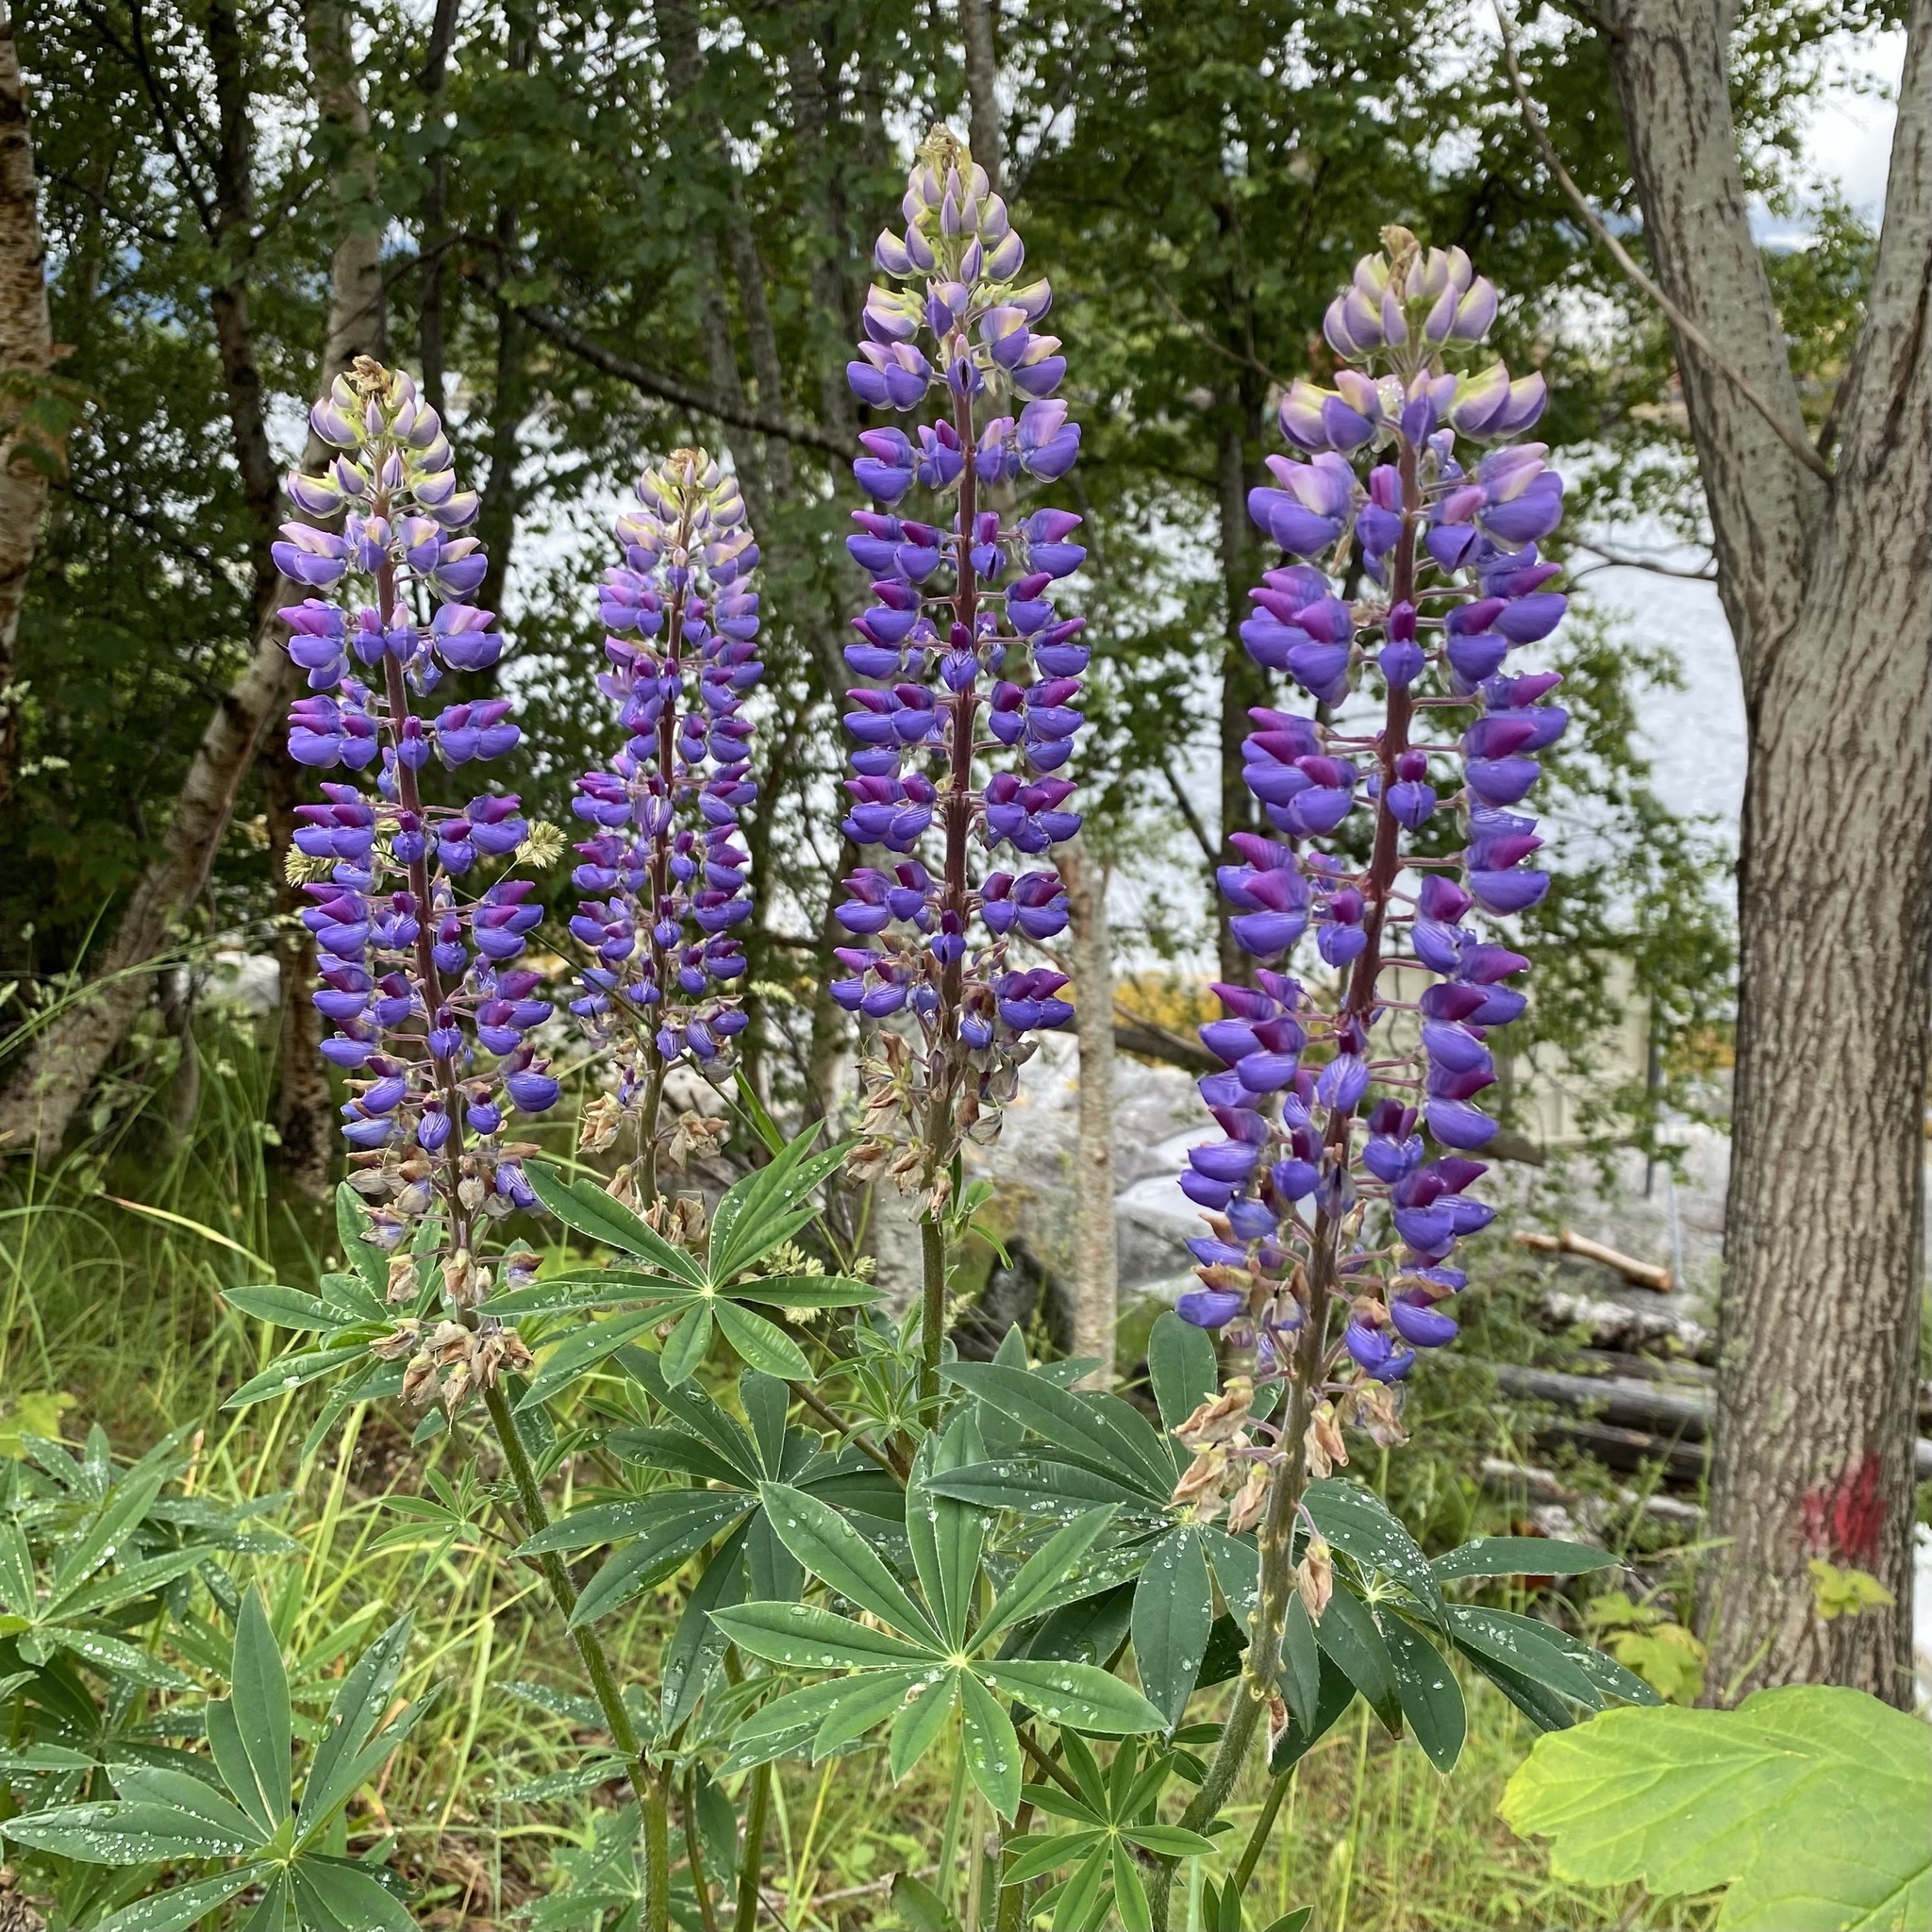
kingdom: Plantae
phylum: Tracheophyta
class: Magnoliopsida
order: Fabales
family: Fabaceae
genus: Lupinus
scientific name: Lupinus polyphyllus
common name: Garden lupin
